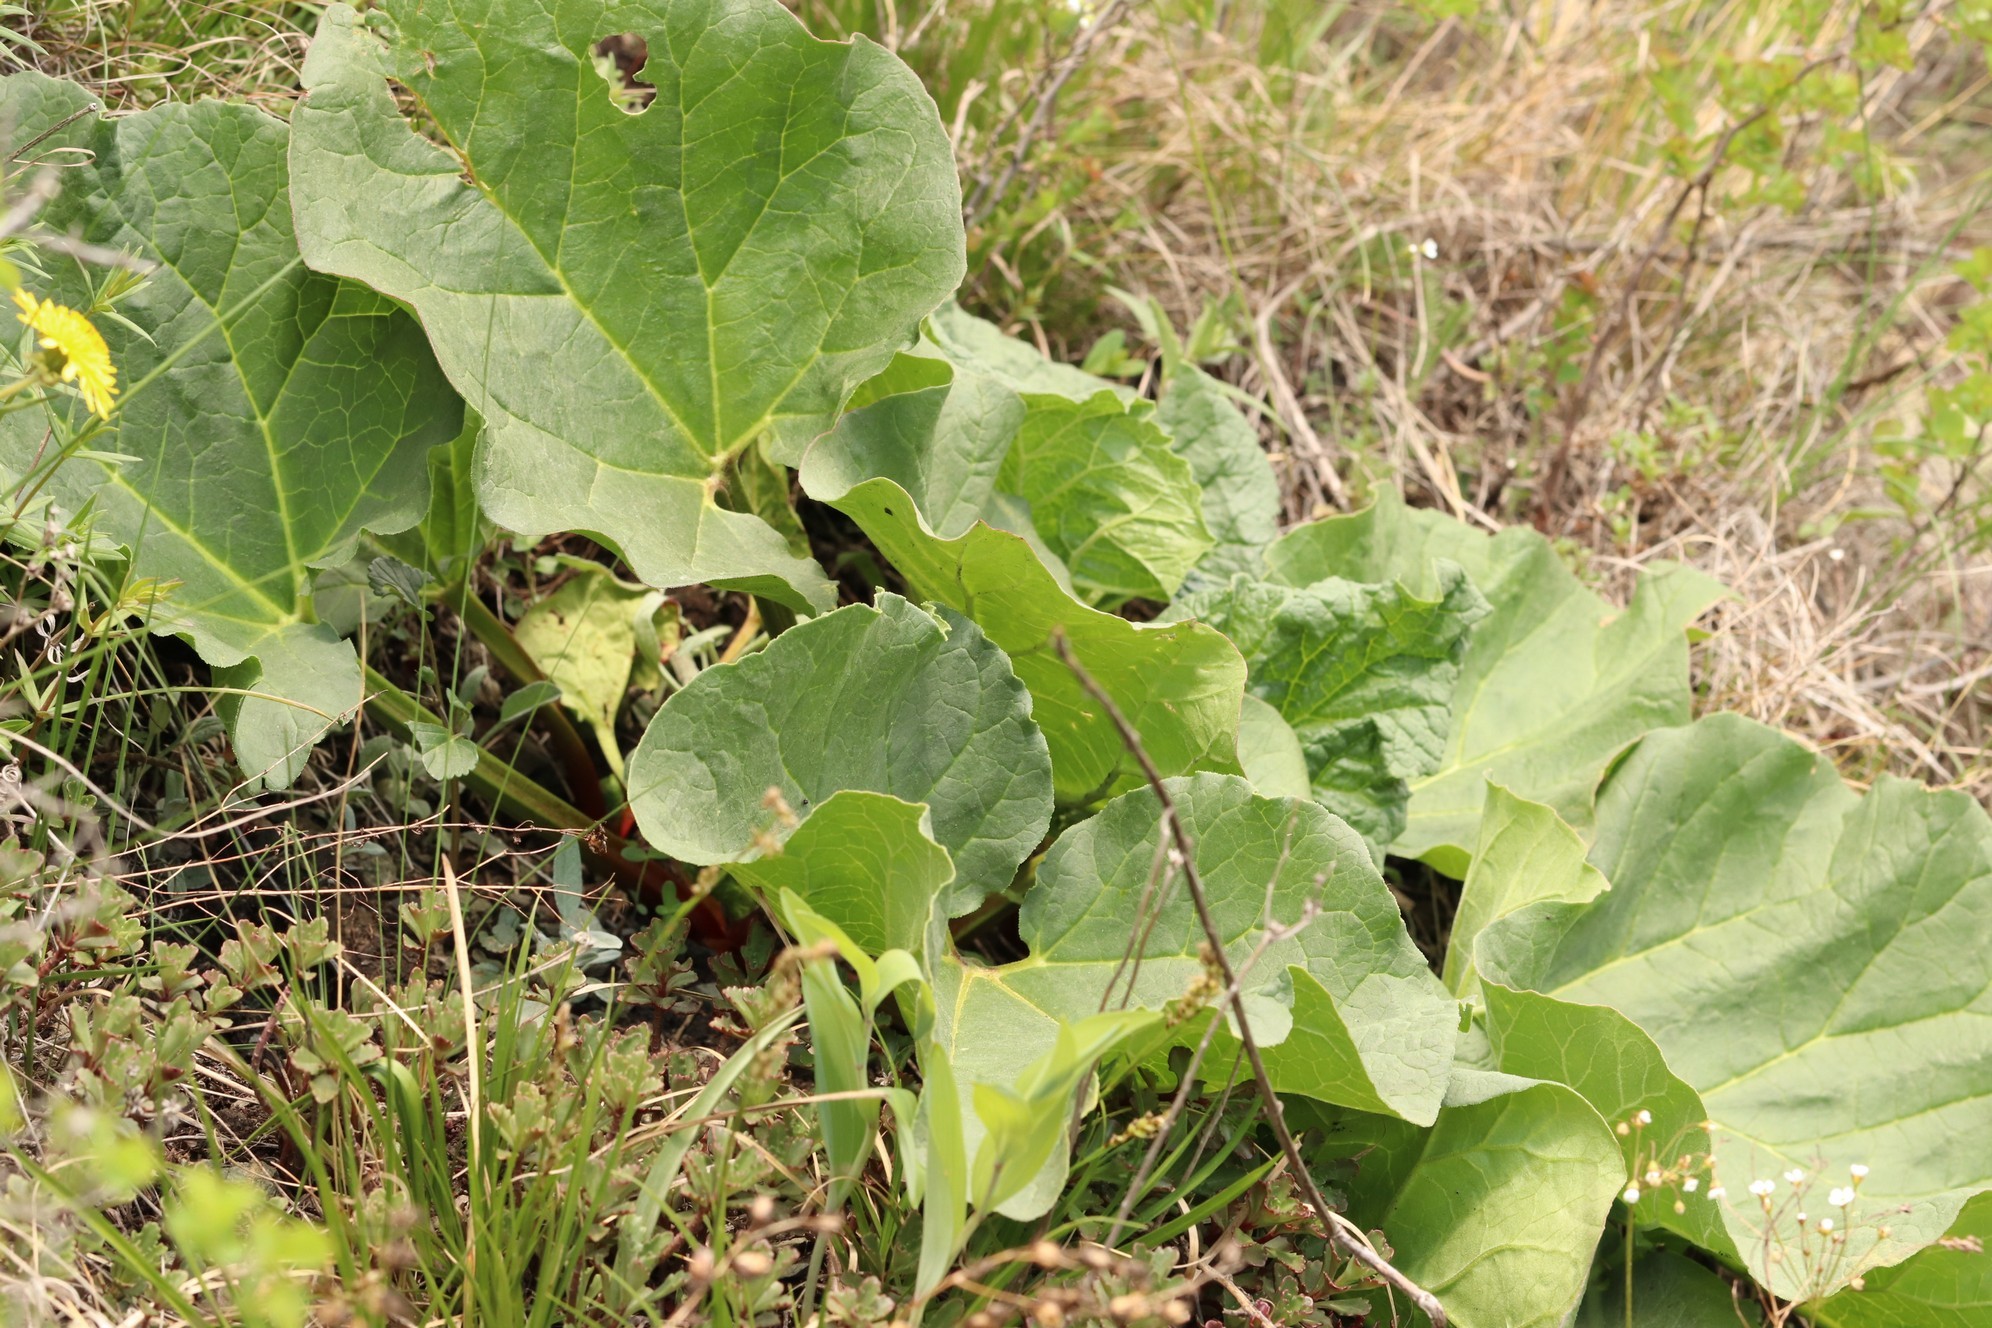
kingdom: Plantae
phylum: Tracheophyta
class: Magnoliopsida
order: Caryophyllales
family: Polygonaceae
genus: Rheum
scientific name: Rheum compactum
